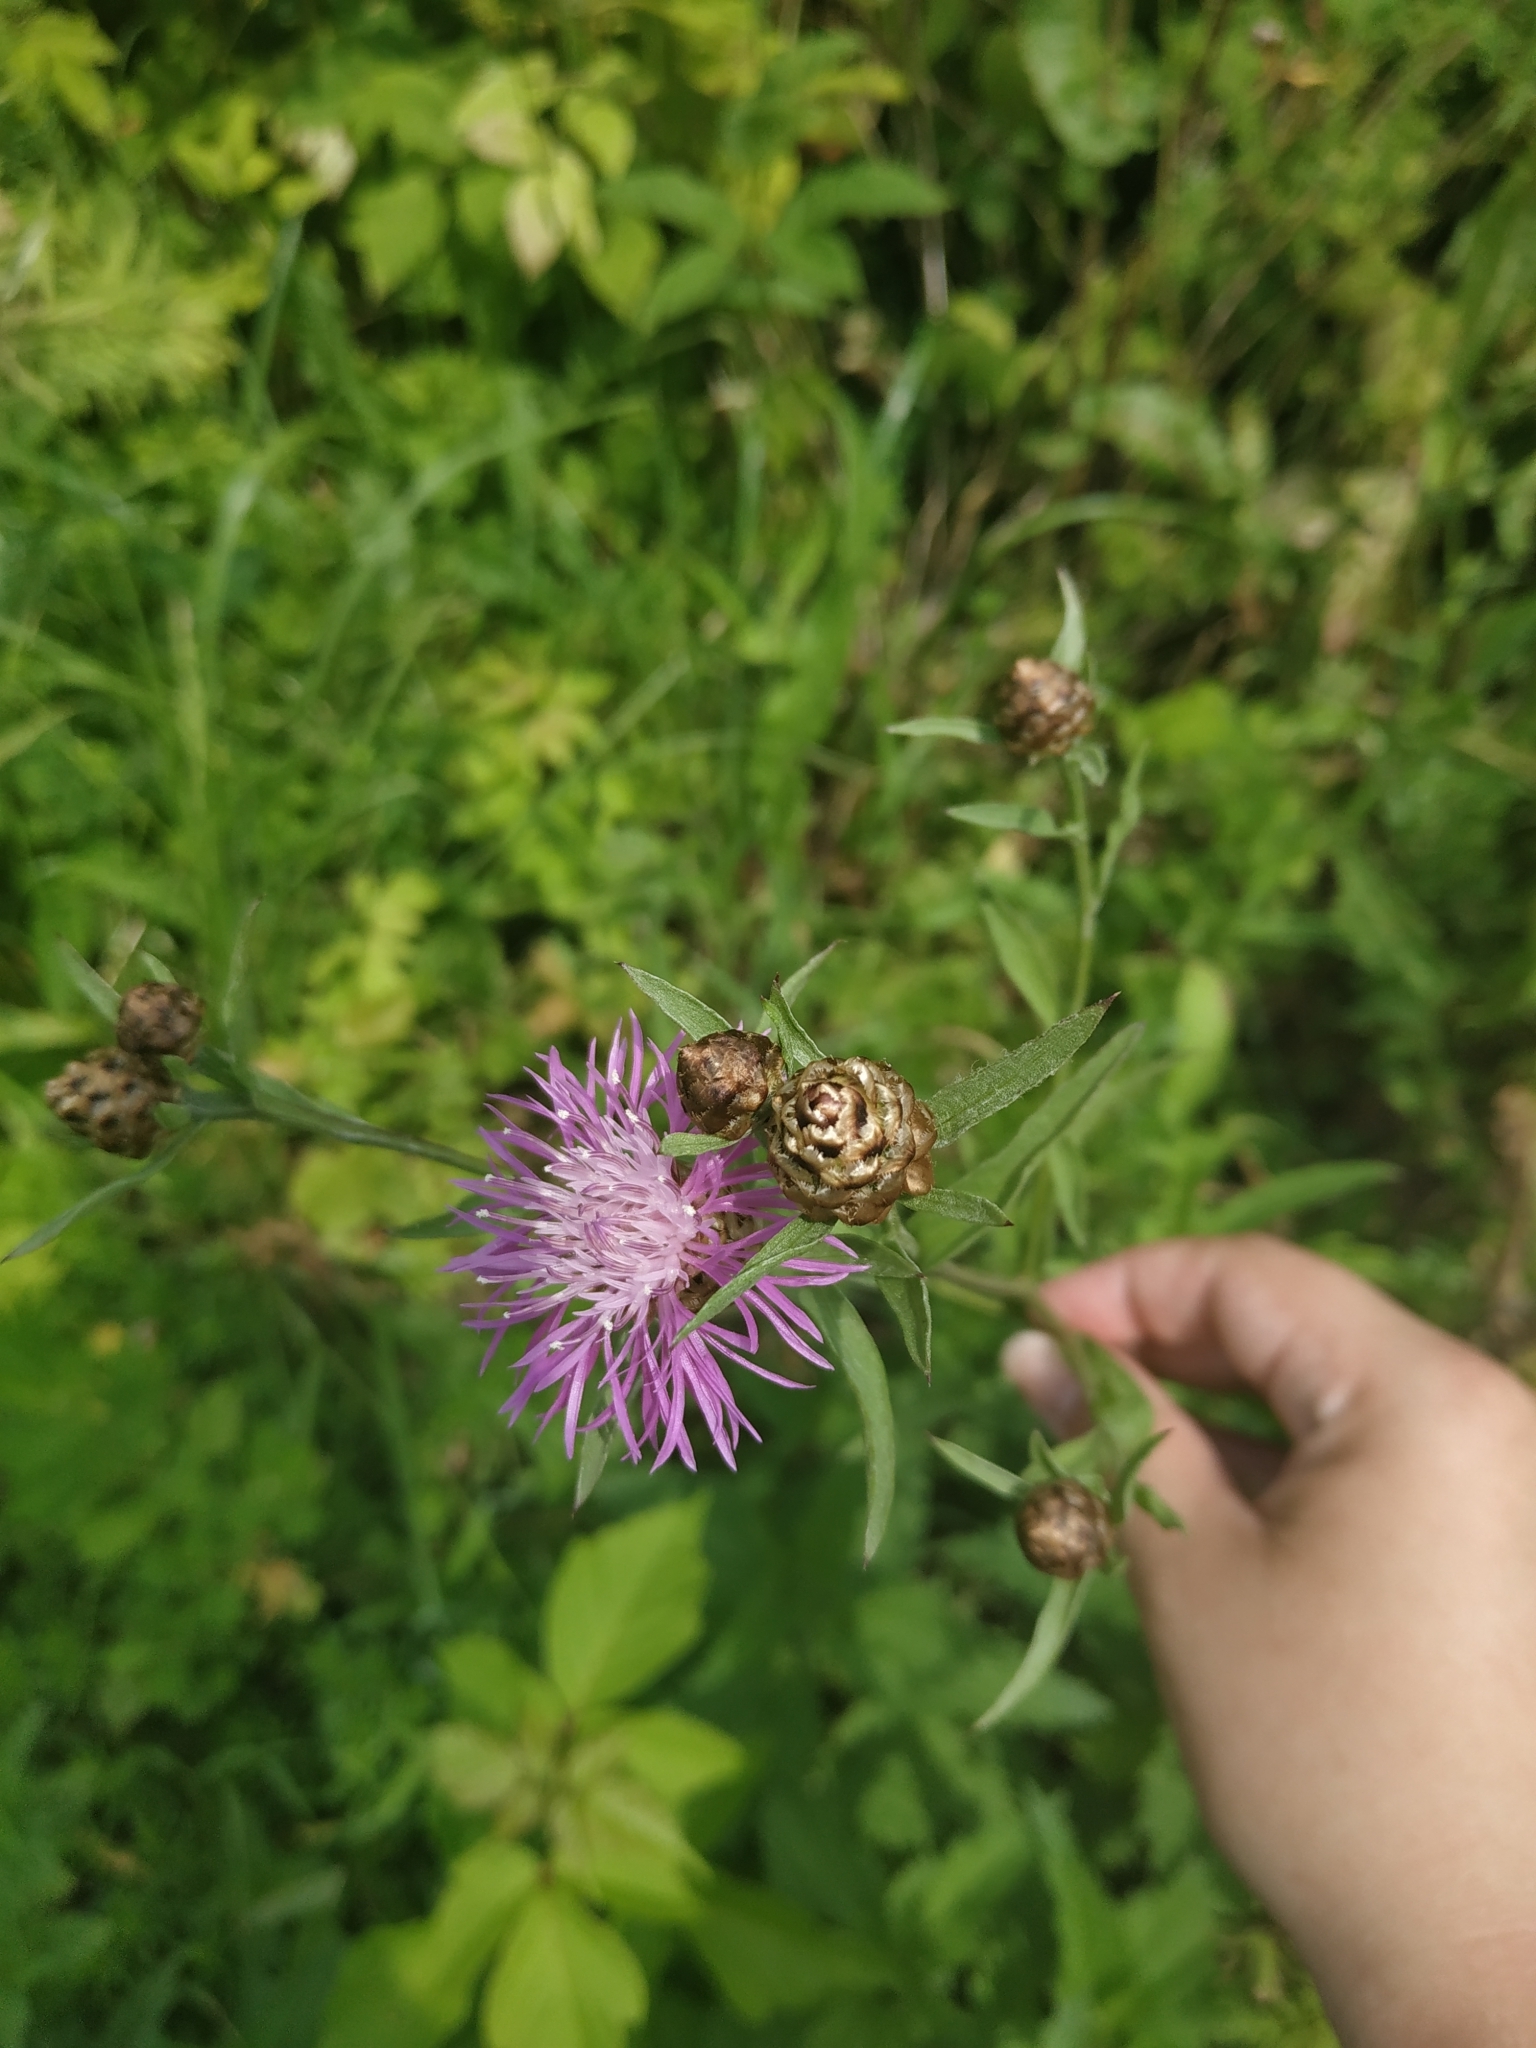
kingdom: Plantae
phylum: Tracheophyta
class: Magnoliopsida
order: Asterales
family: Asteraceae
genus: Centaurea
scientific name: Centaurea jacea
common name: Brown knapweed
